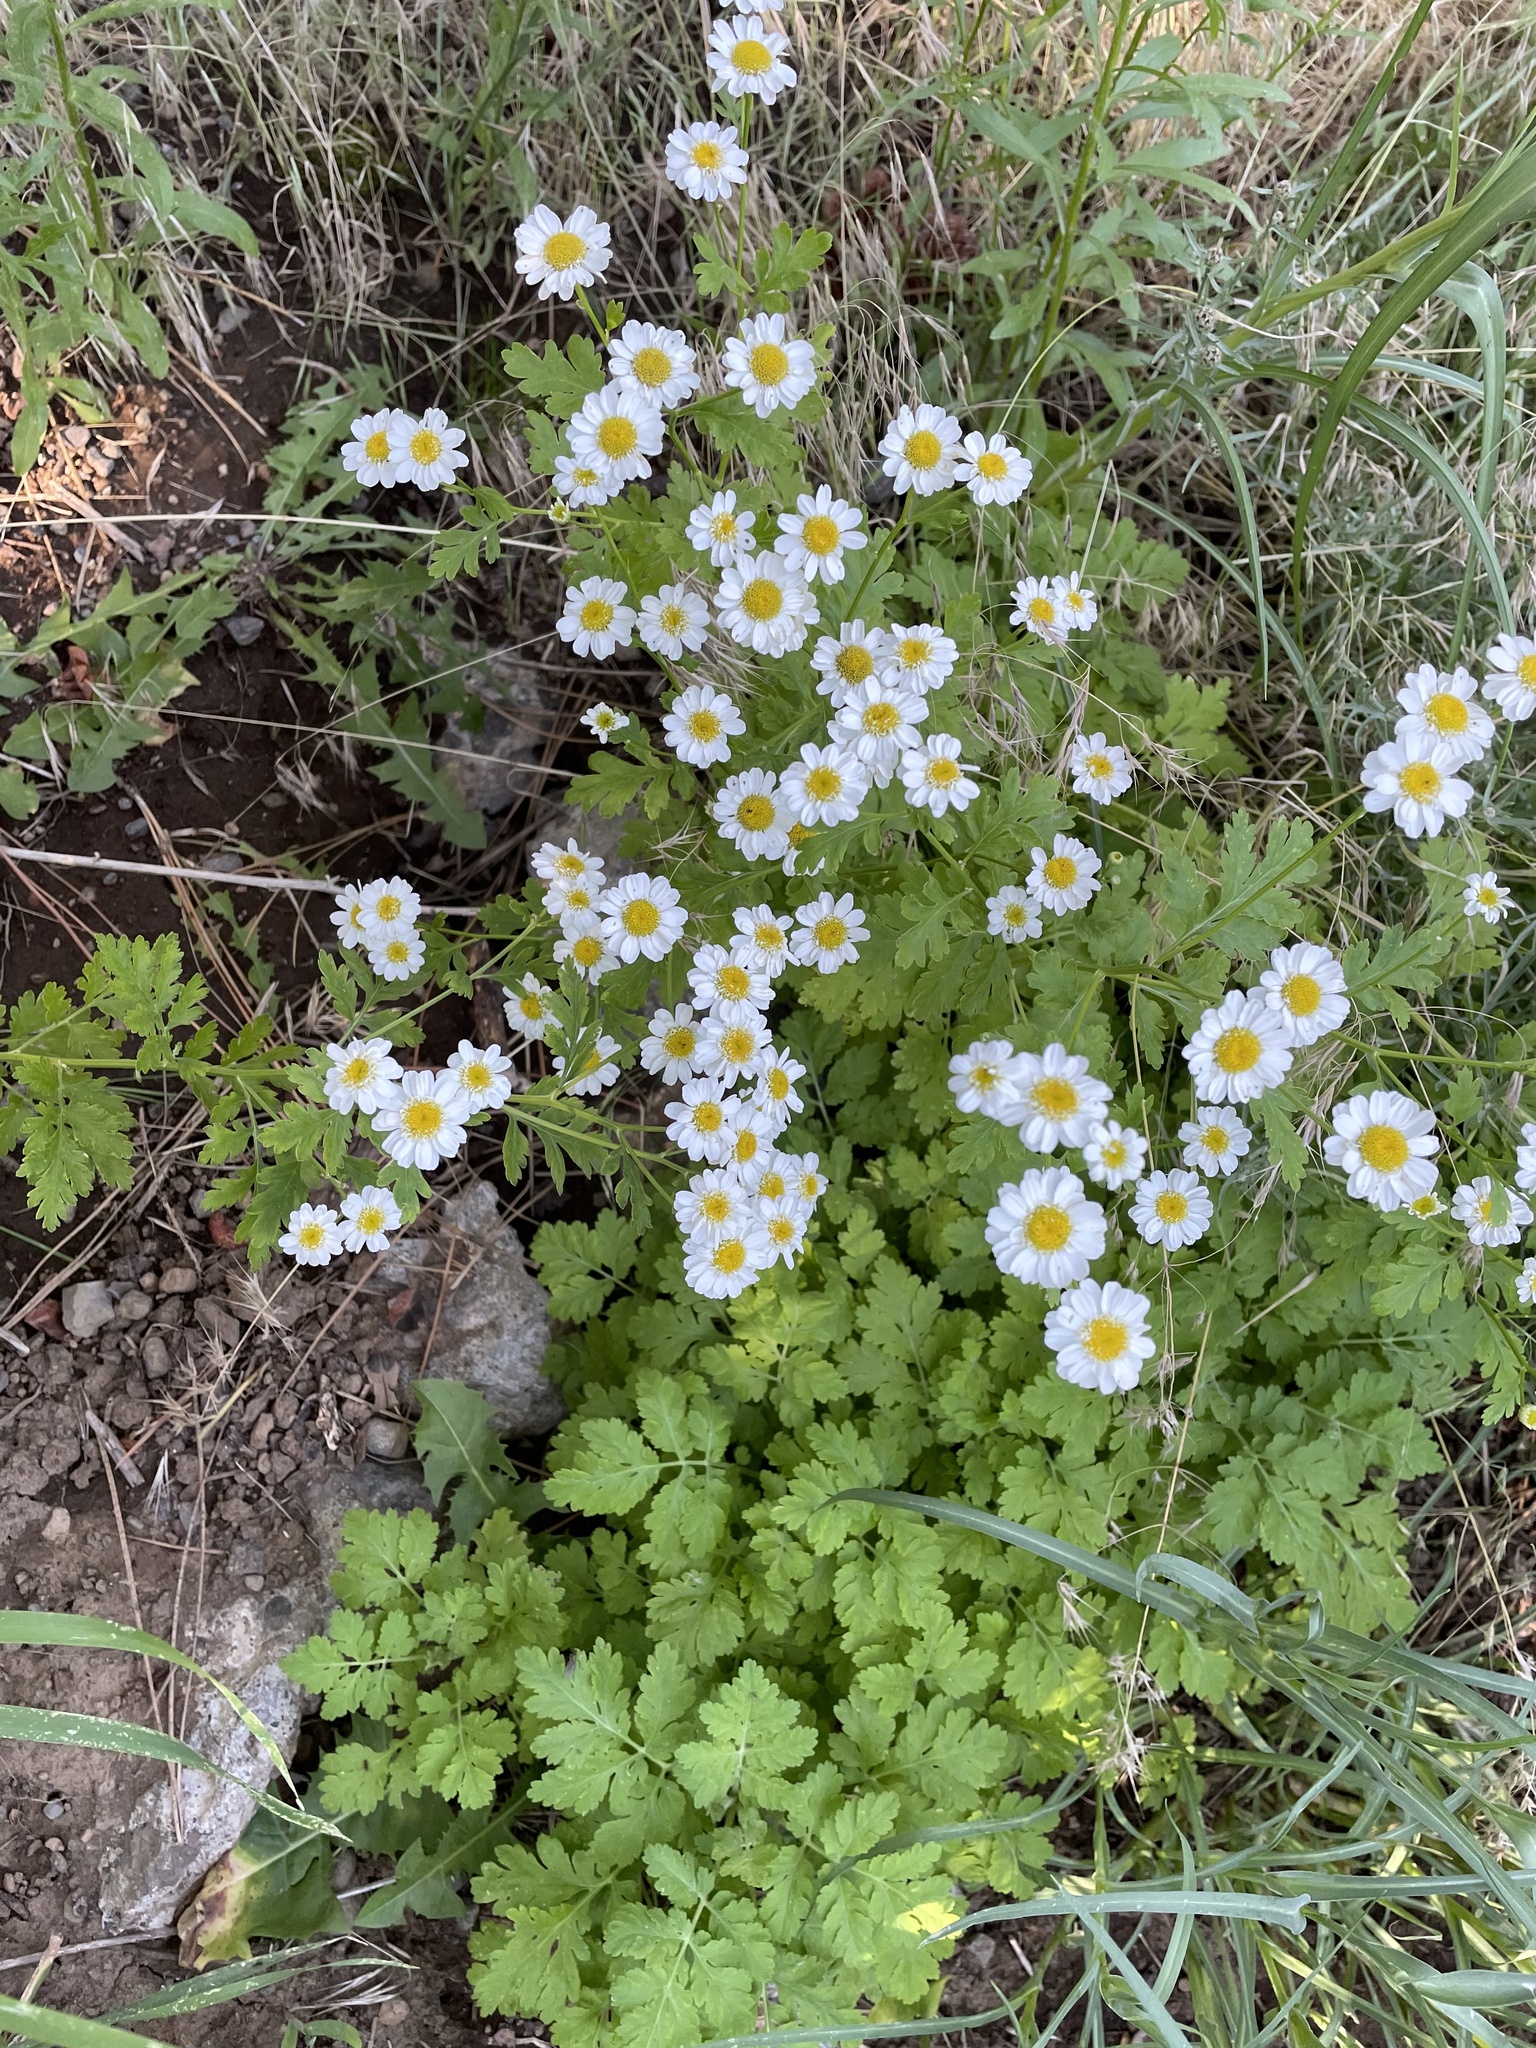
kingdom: Plantae
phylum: Tracheophyta
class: Magnoliopsida
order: Asterales
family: Asteraceae
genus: Tanacetum
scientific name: Tanacetum parthenium
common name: Feverfew
